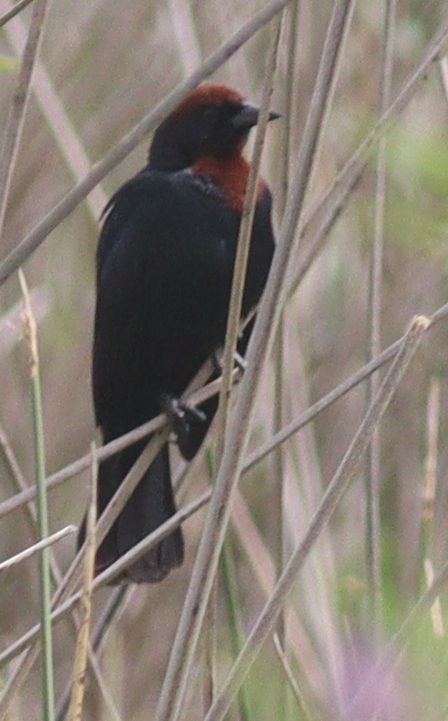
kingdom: Animalia
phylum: Chordata
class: Aves
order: Passeriformes
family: Icteridae
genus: Chrysomus
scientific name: Chrysomus ruficapillus
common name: Chestnut-capped blackbird
